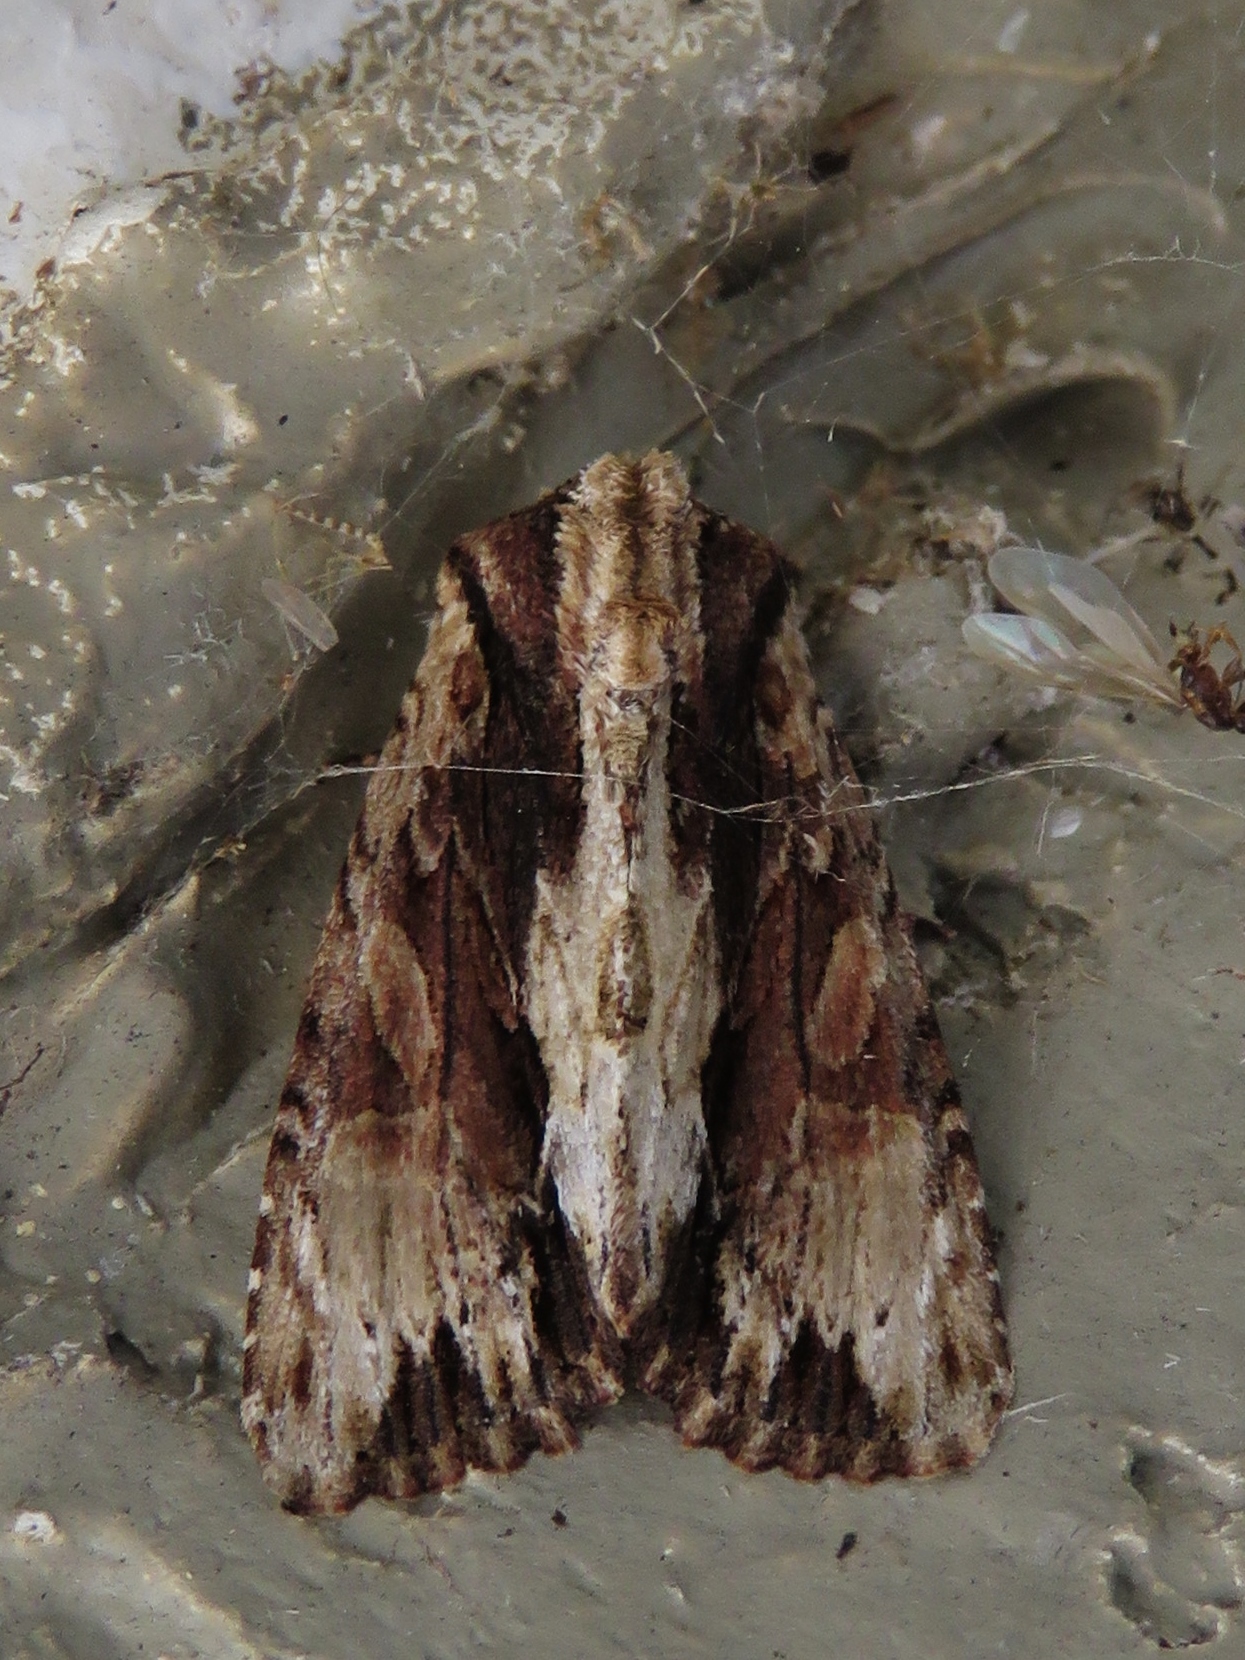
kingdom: Animalia
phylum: Arthropoda
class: Insecta
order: Lepidoptera
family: Noctuidae
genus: Achatia
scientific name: Achatia mucens
